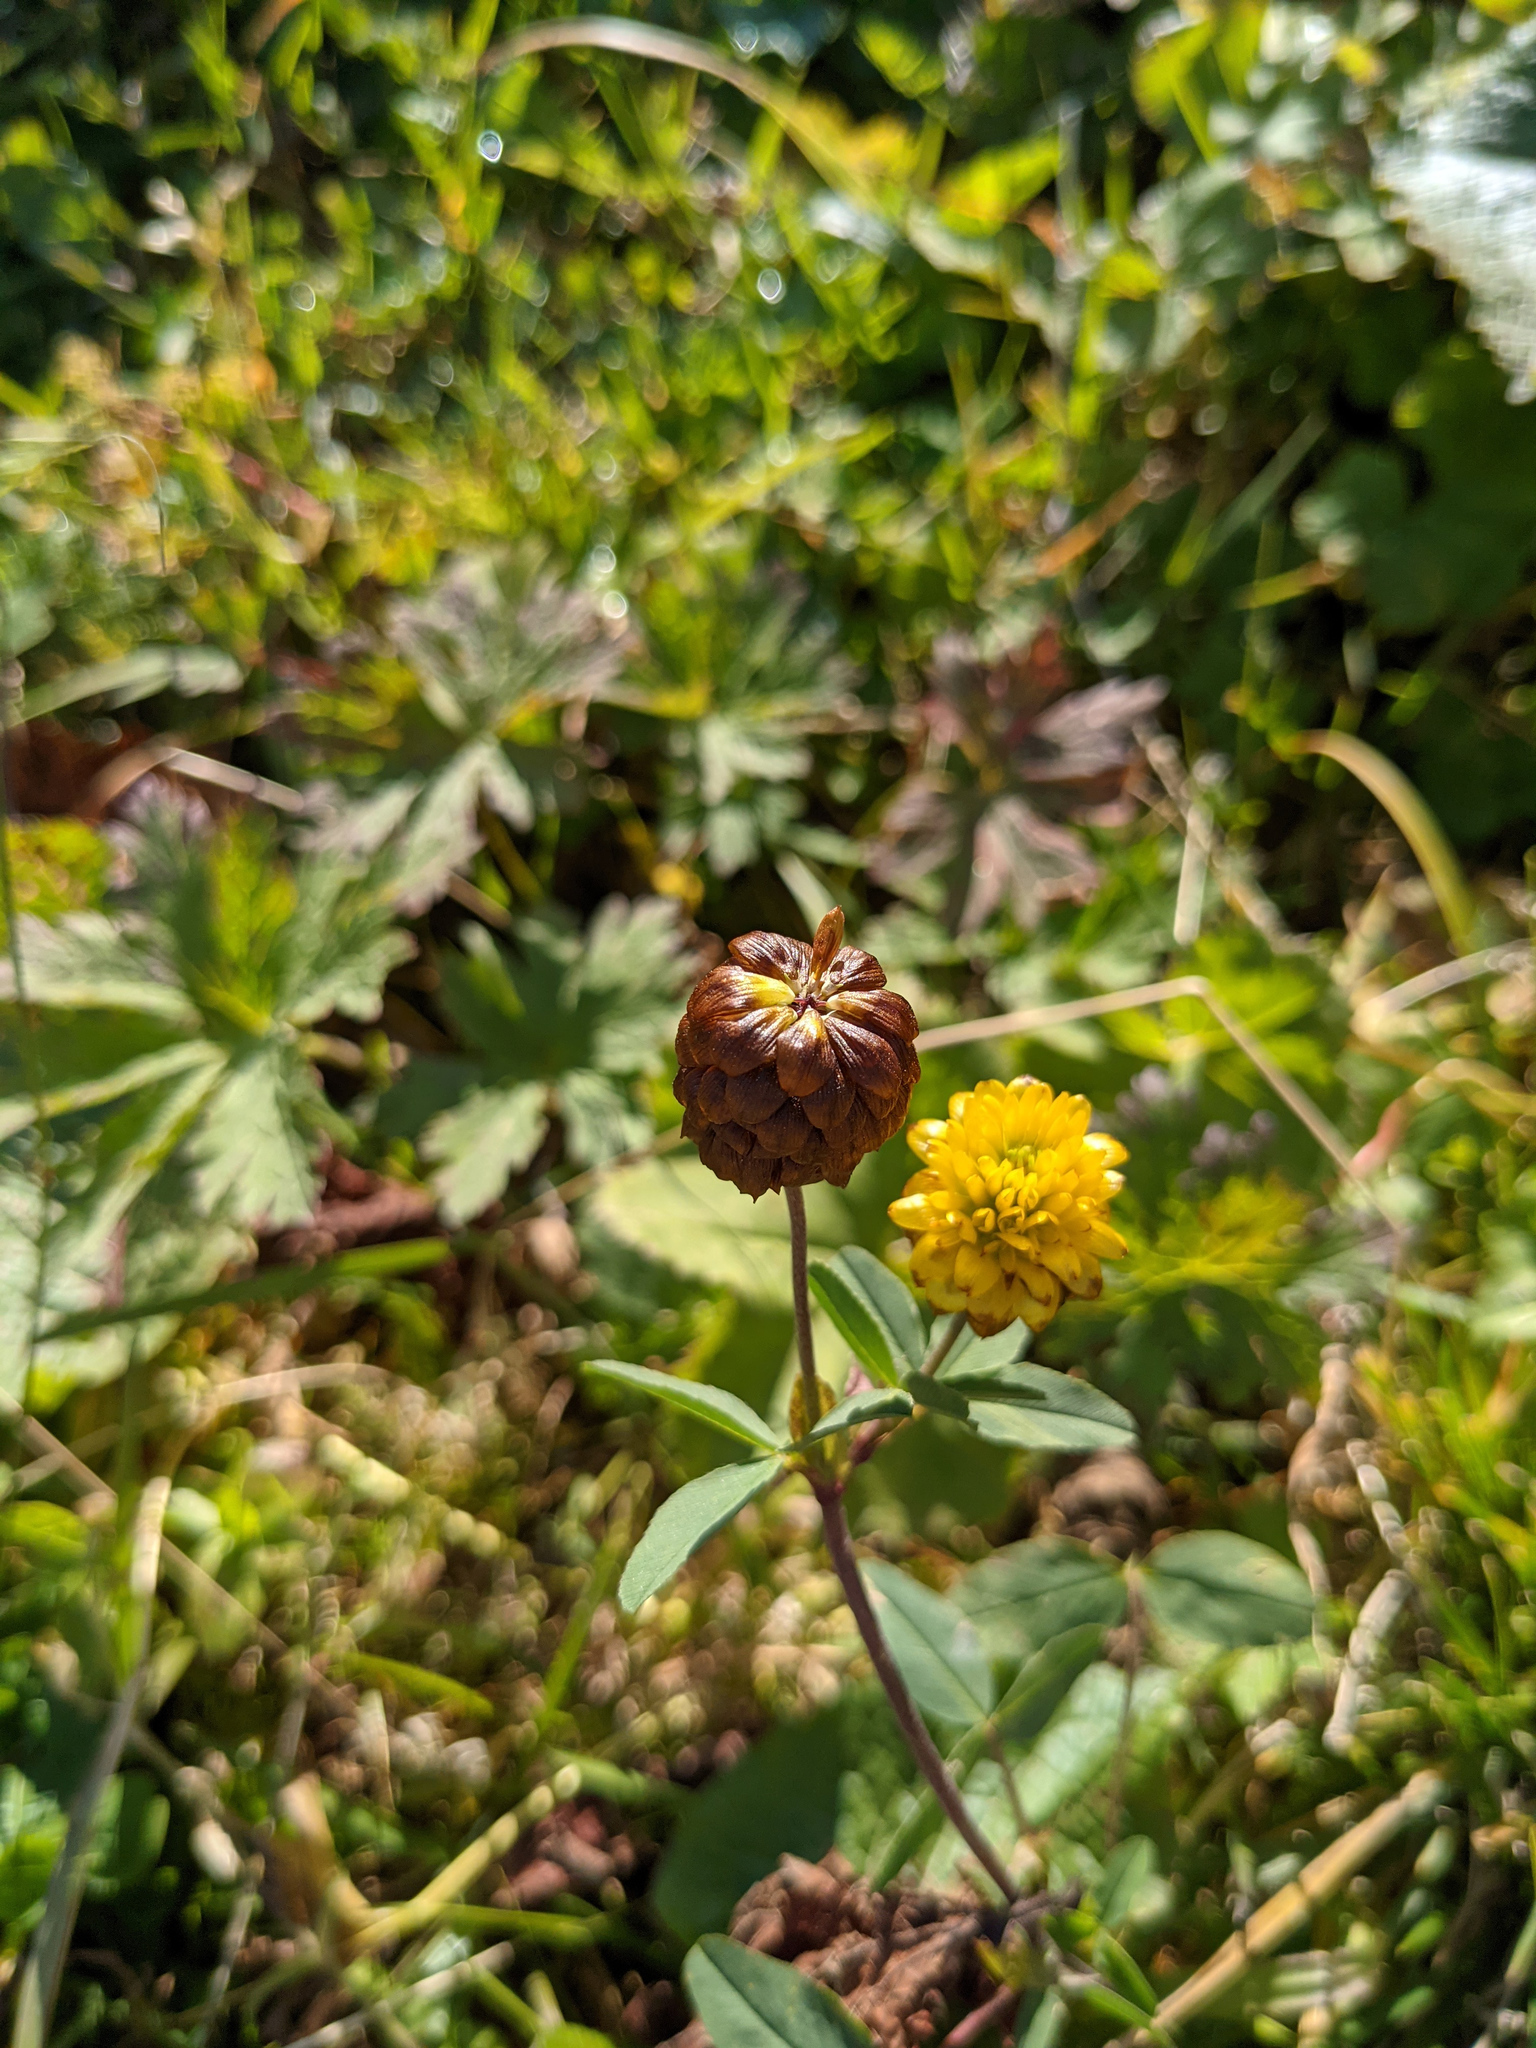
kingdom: Plantae
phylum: Tracheophyta
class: Magnoliopsida
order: Fabales
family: Fabaceae
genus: Trifolium
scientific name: Trifolium badium
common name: Brown clover
